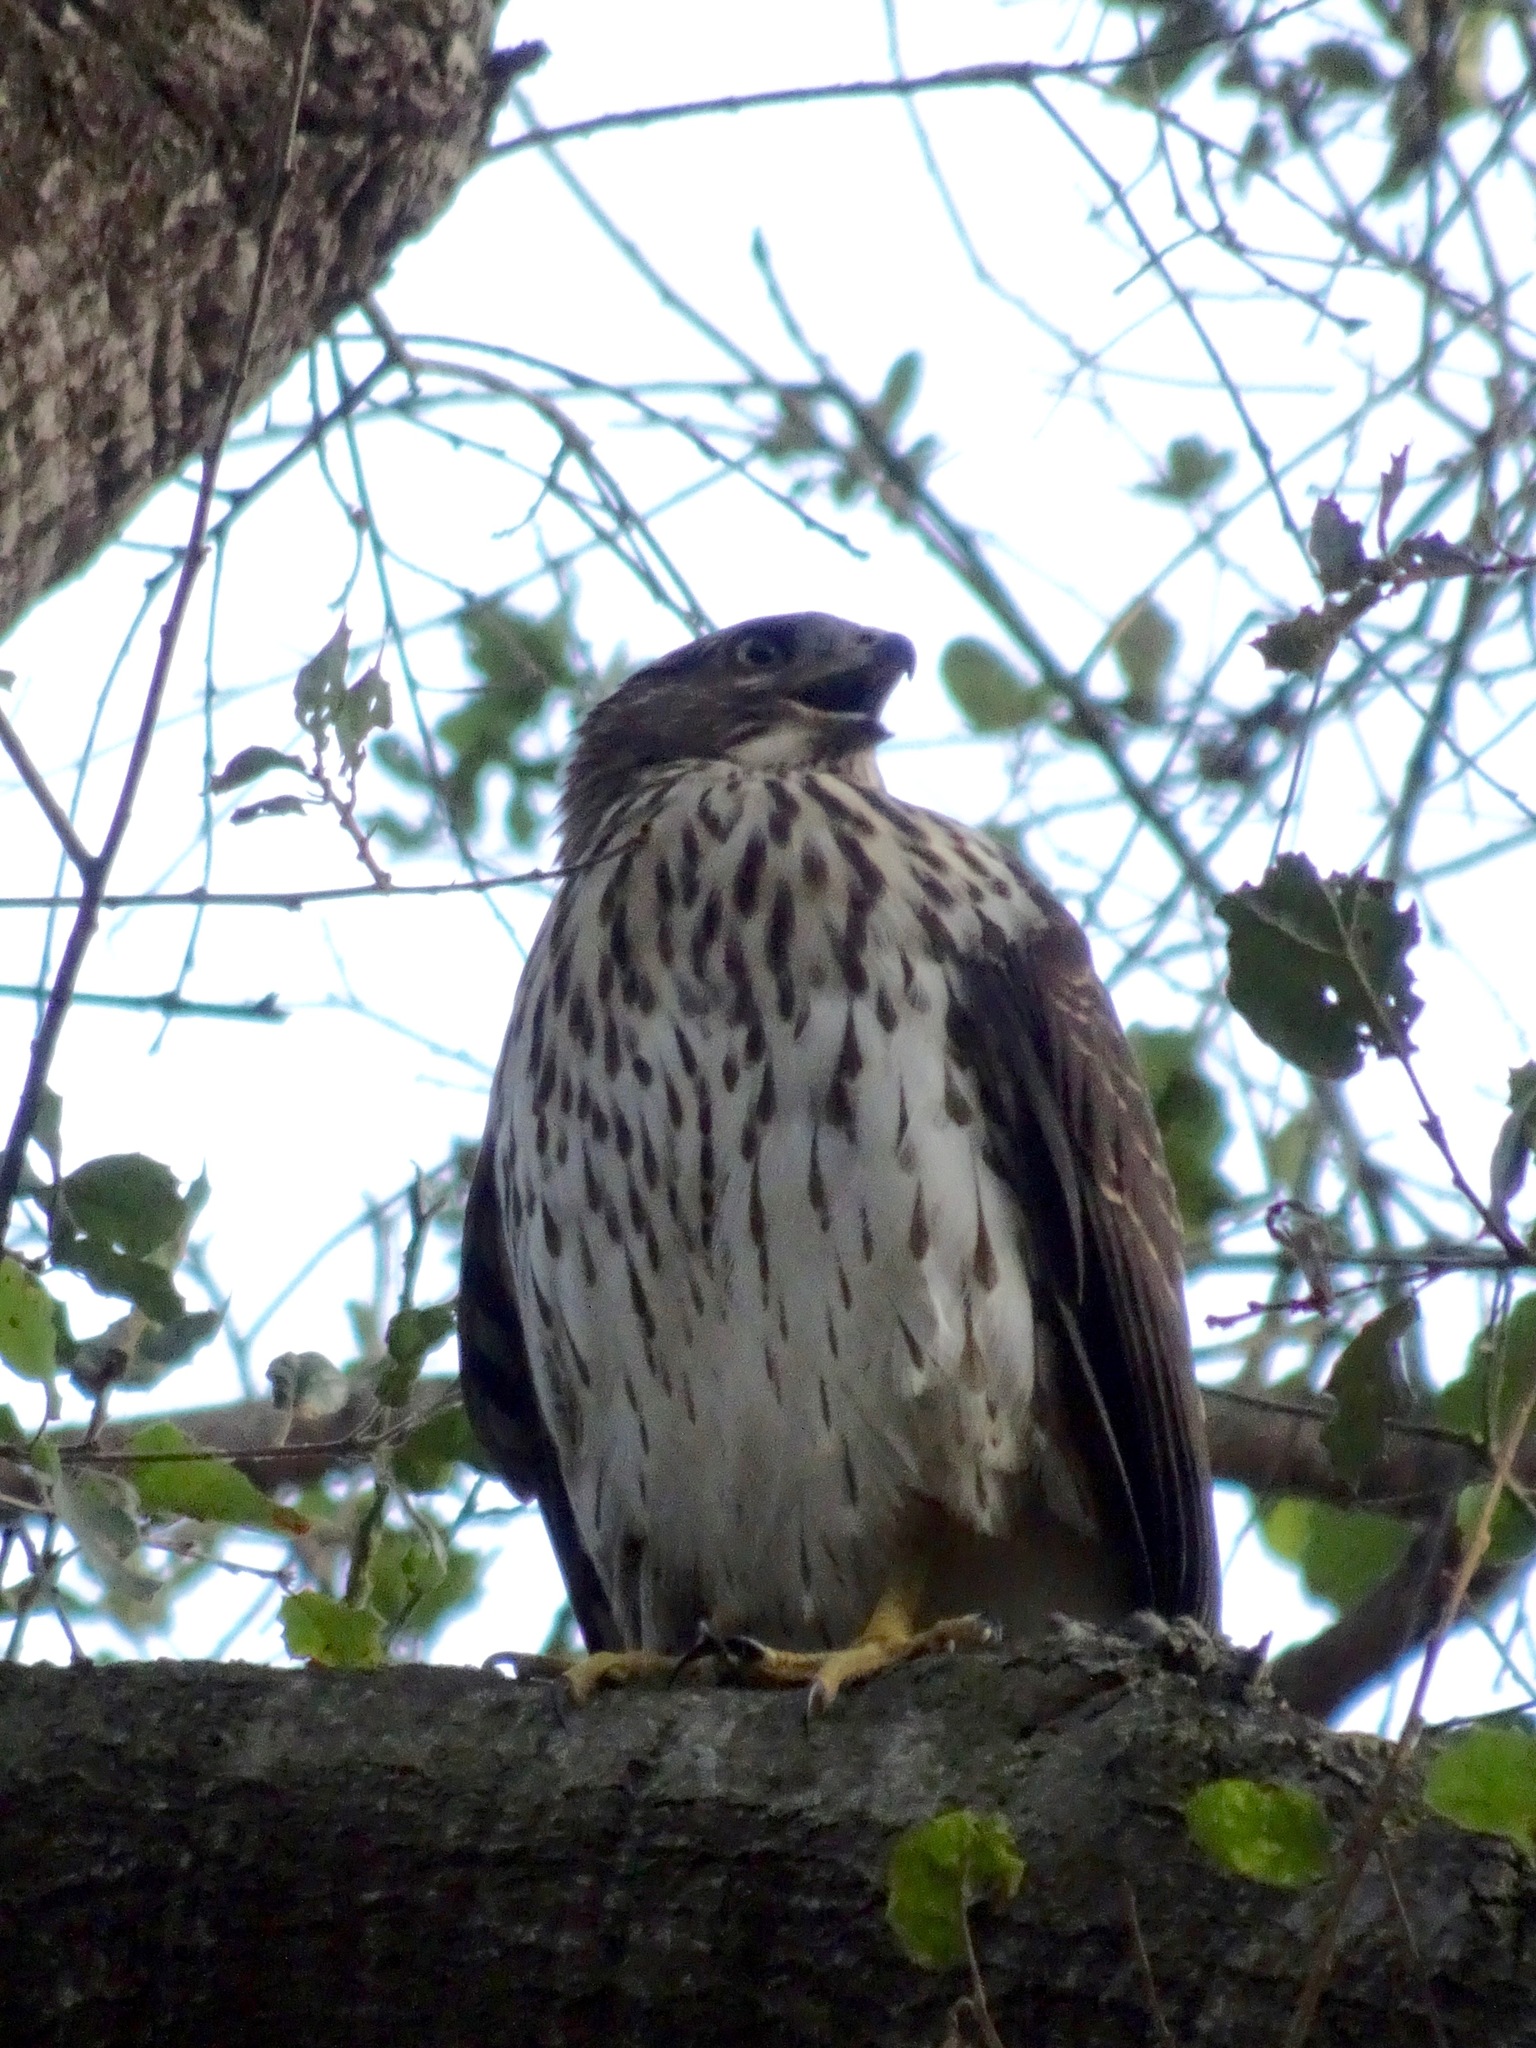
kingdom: Animalia
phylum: Chordata
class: Aves
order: Accipitriformes
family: Accipitridae
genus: Accipiter
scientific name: Accipiter cooperii
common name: Cooper's hawk
